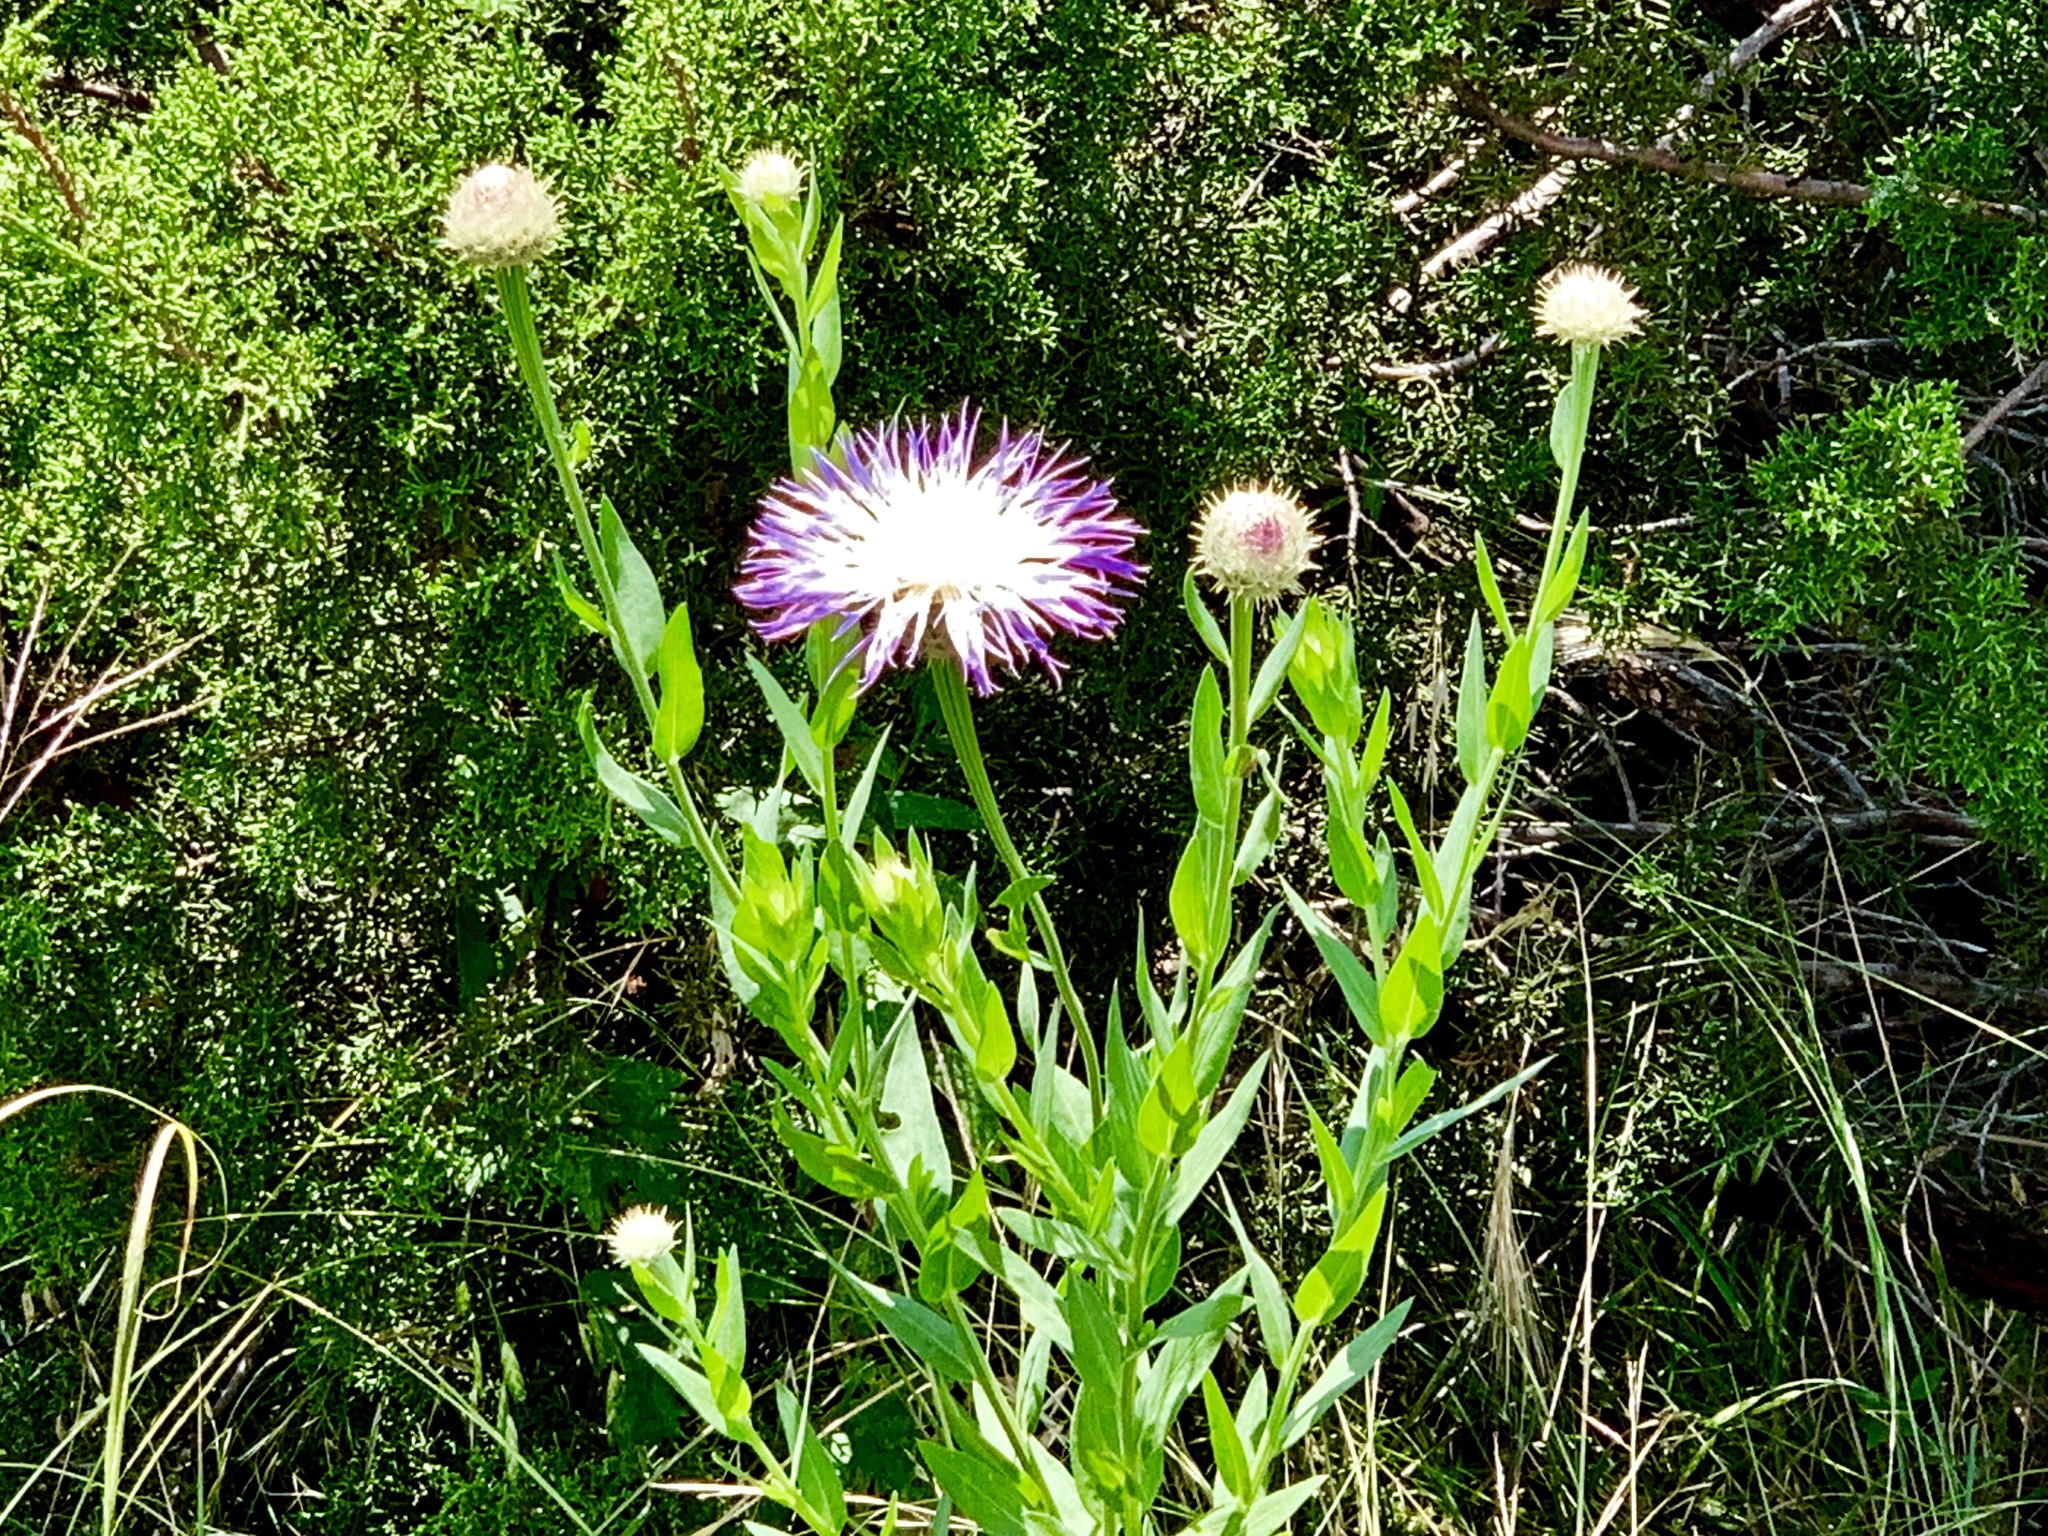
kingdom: Plantae
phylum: Tracheophyta
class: Magnoliopsida
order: Asterales
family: Asteraceae
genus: Plectocephalus
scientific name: Plectocephalus americanus
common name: American basket-flower
